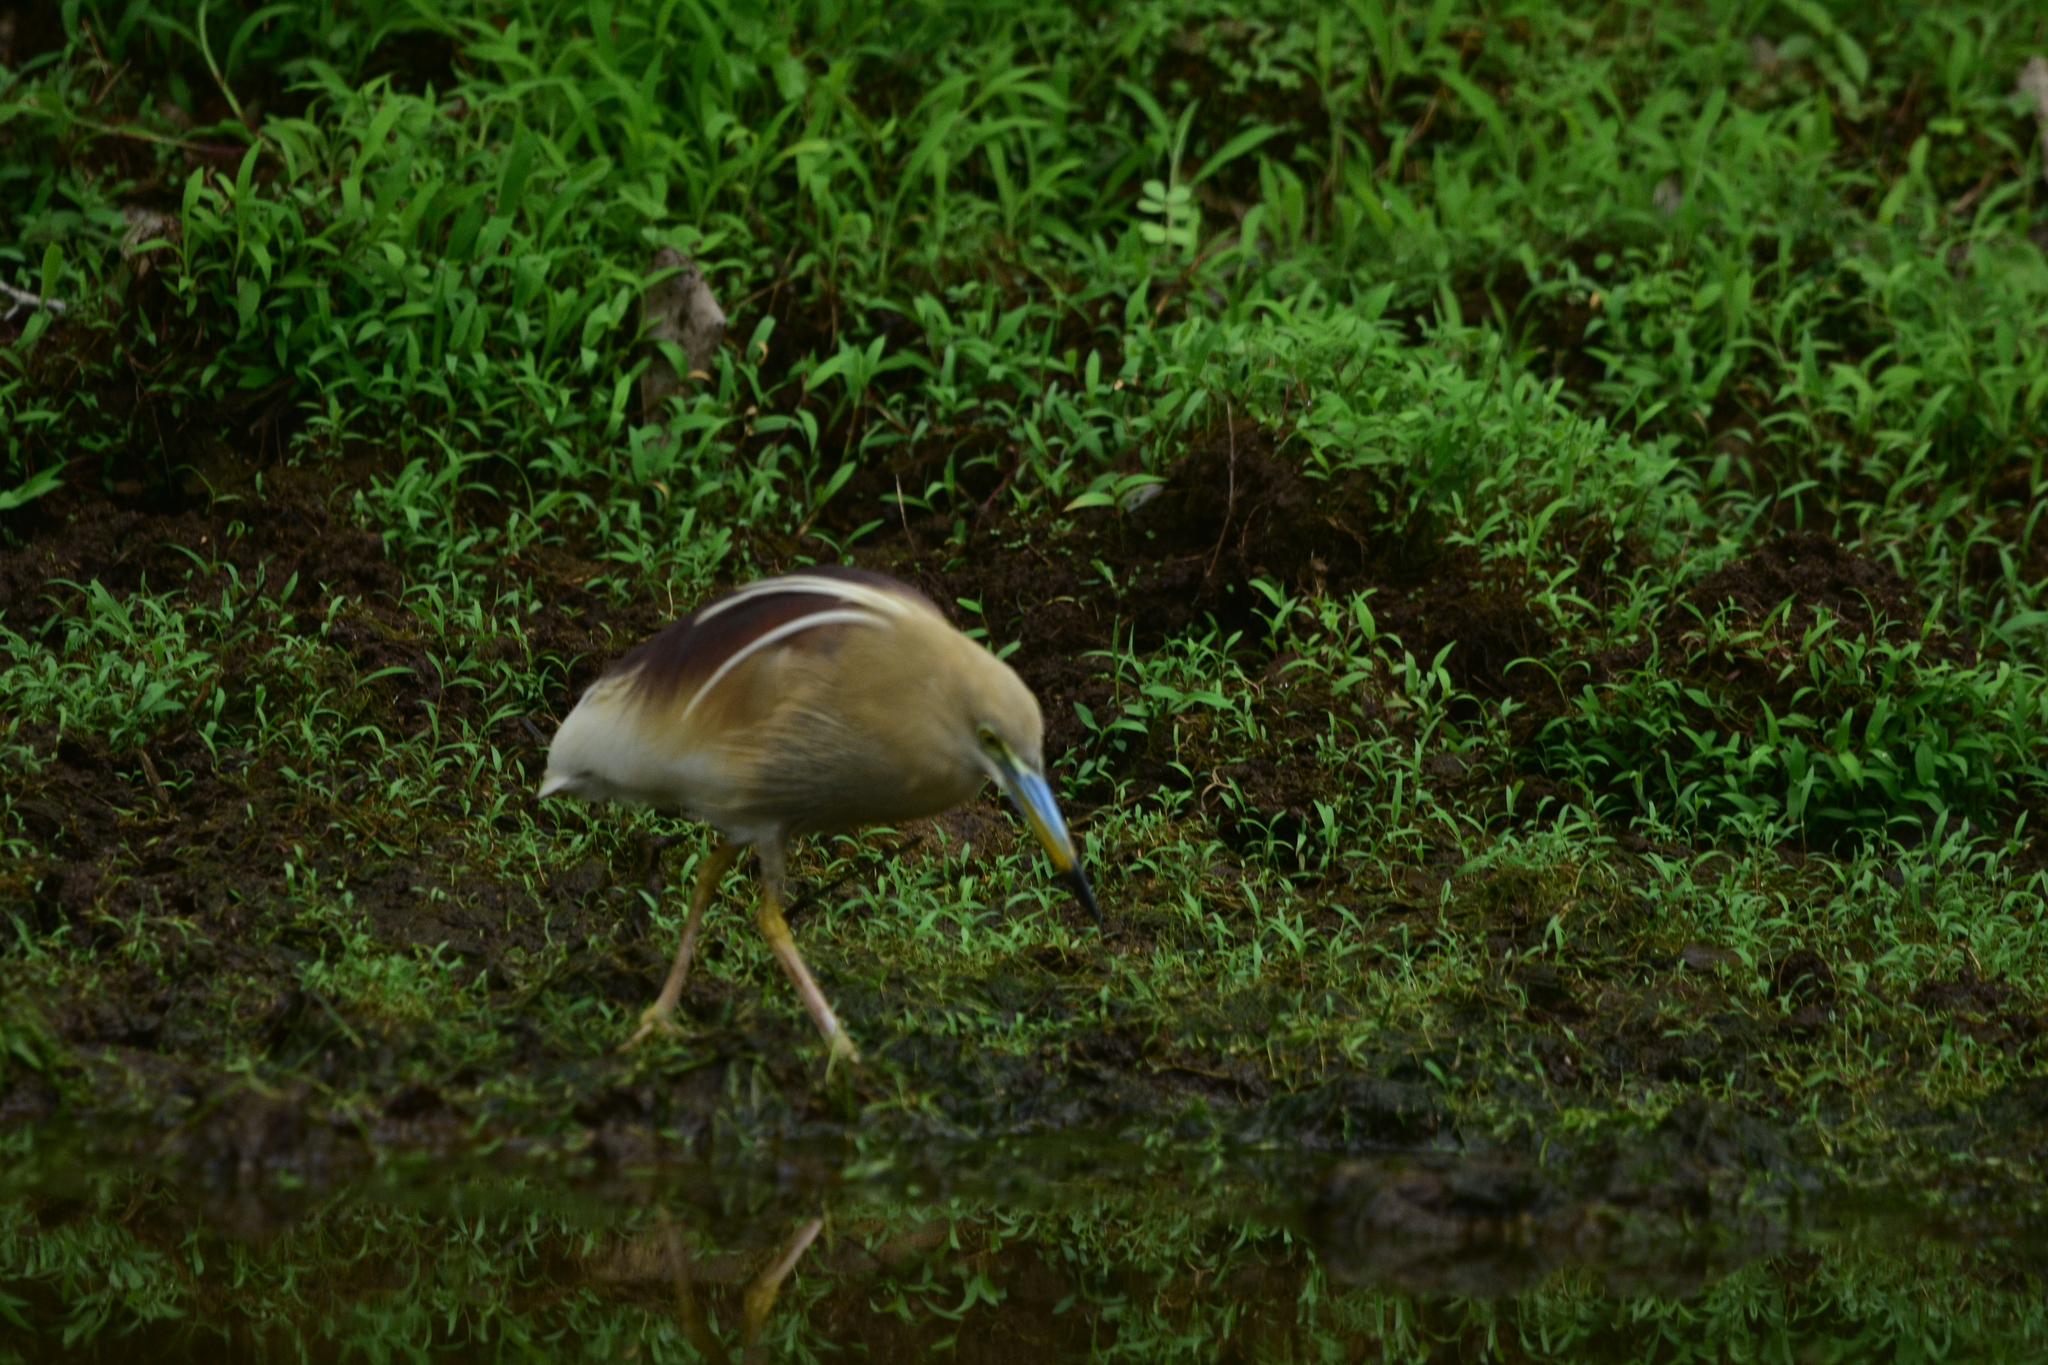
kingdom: Animalia
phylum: Chordata
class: Aves
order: Pelecaniformes
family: Ardeidae
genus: Ardeola
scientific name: Ardeola grayii
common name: Indian pond heron
